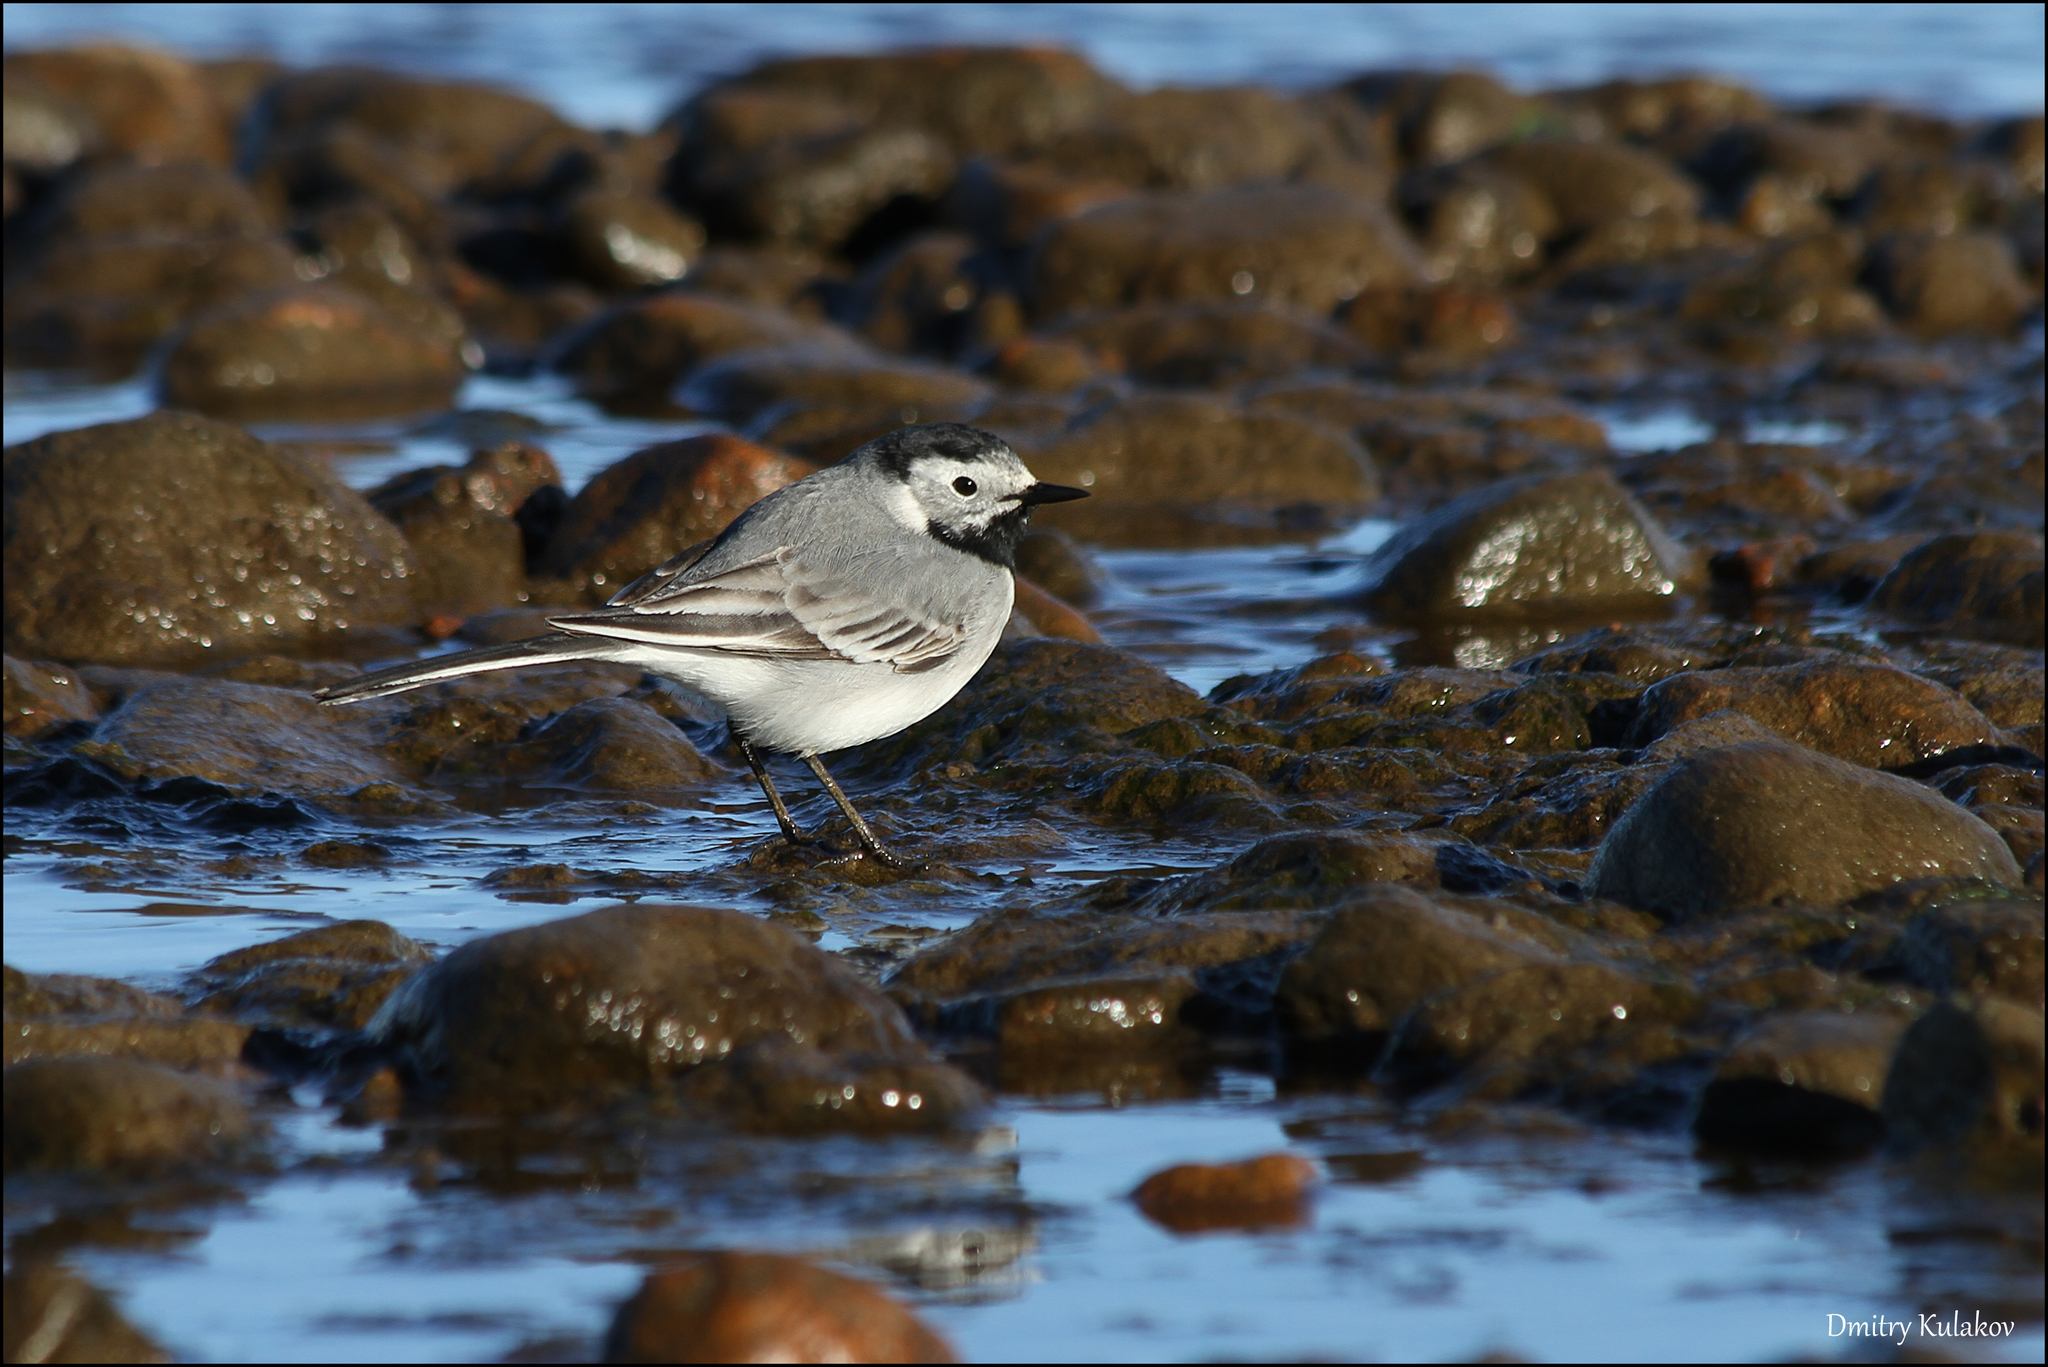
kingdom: Animalia
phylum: Chordata
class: Aves
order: Passeriformes
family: Motacillidae
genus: Motacilla
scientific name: Motacilla alba
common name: White wagtail
